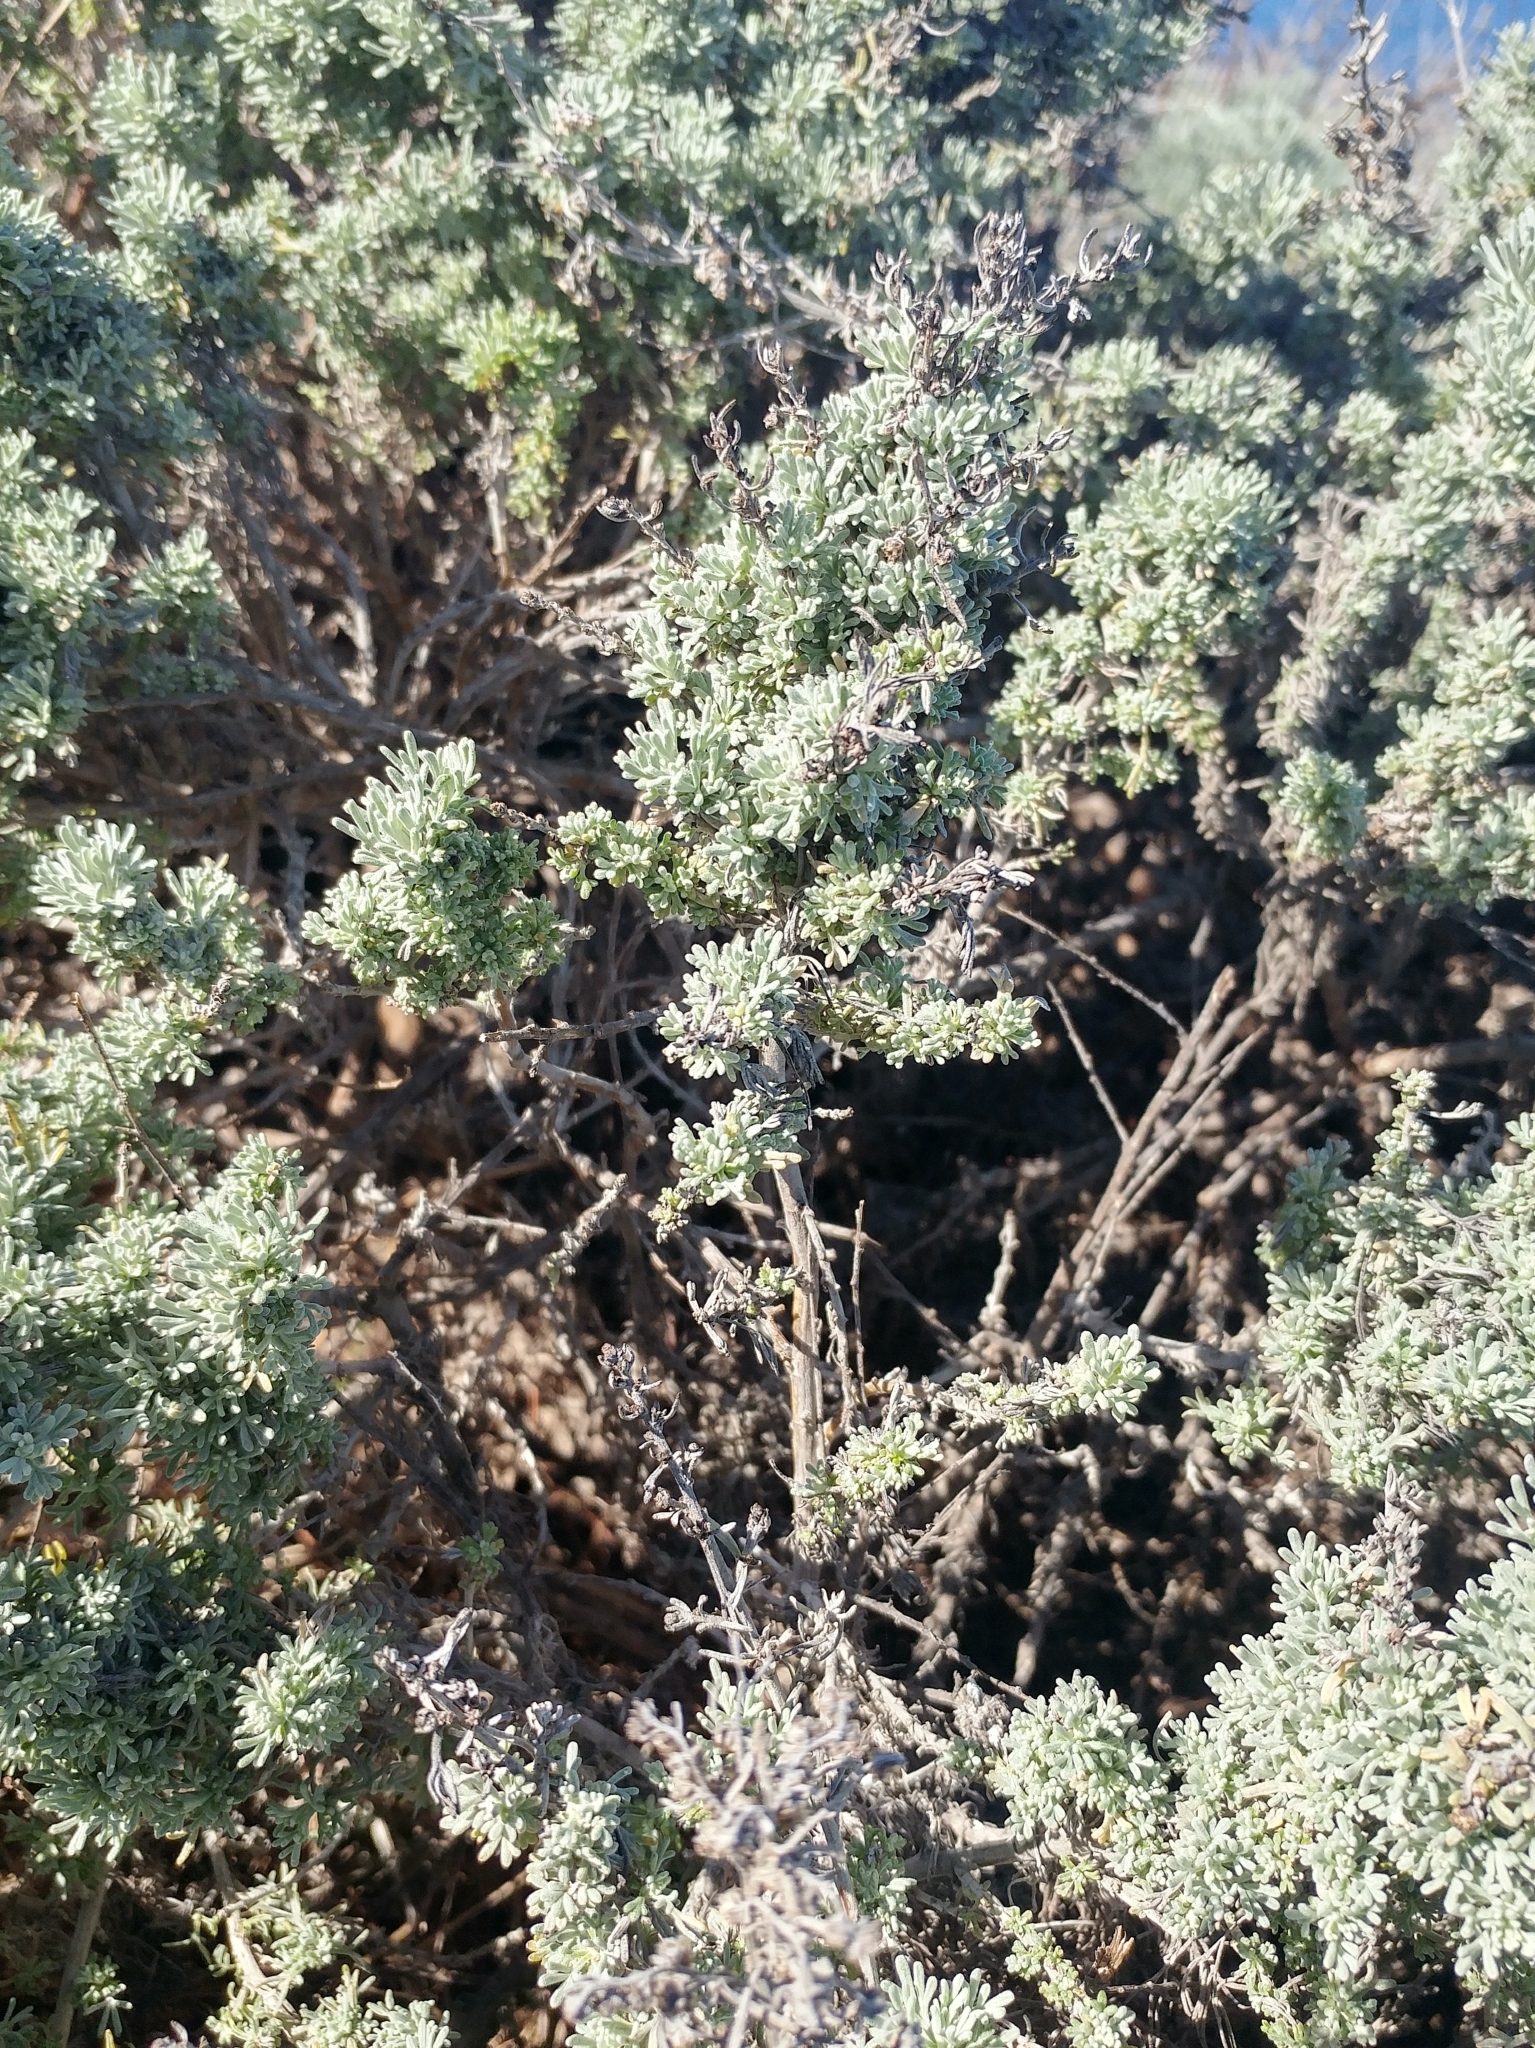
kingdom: Plantae
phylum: Tracheophyta
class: Magnoliopsida
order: Asterales
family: Asteraceae
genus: Artemisia
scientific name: Artemisia californica
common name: California sagebrush
